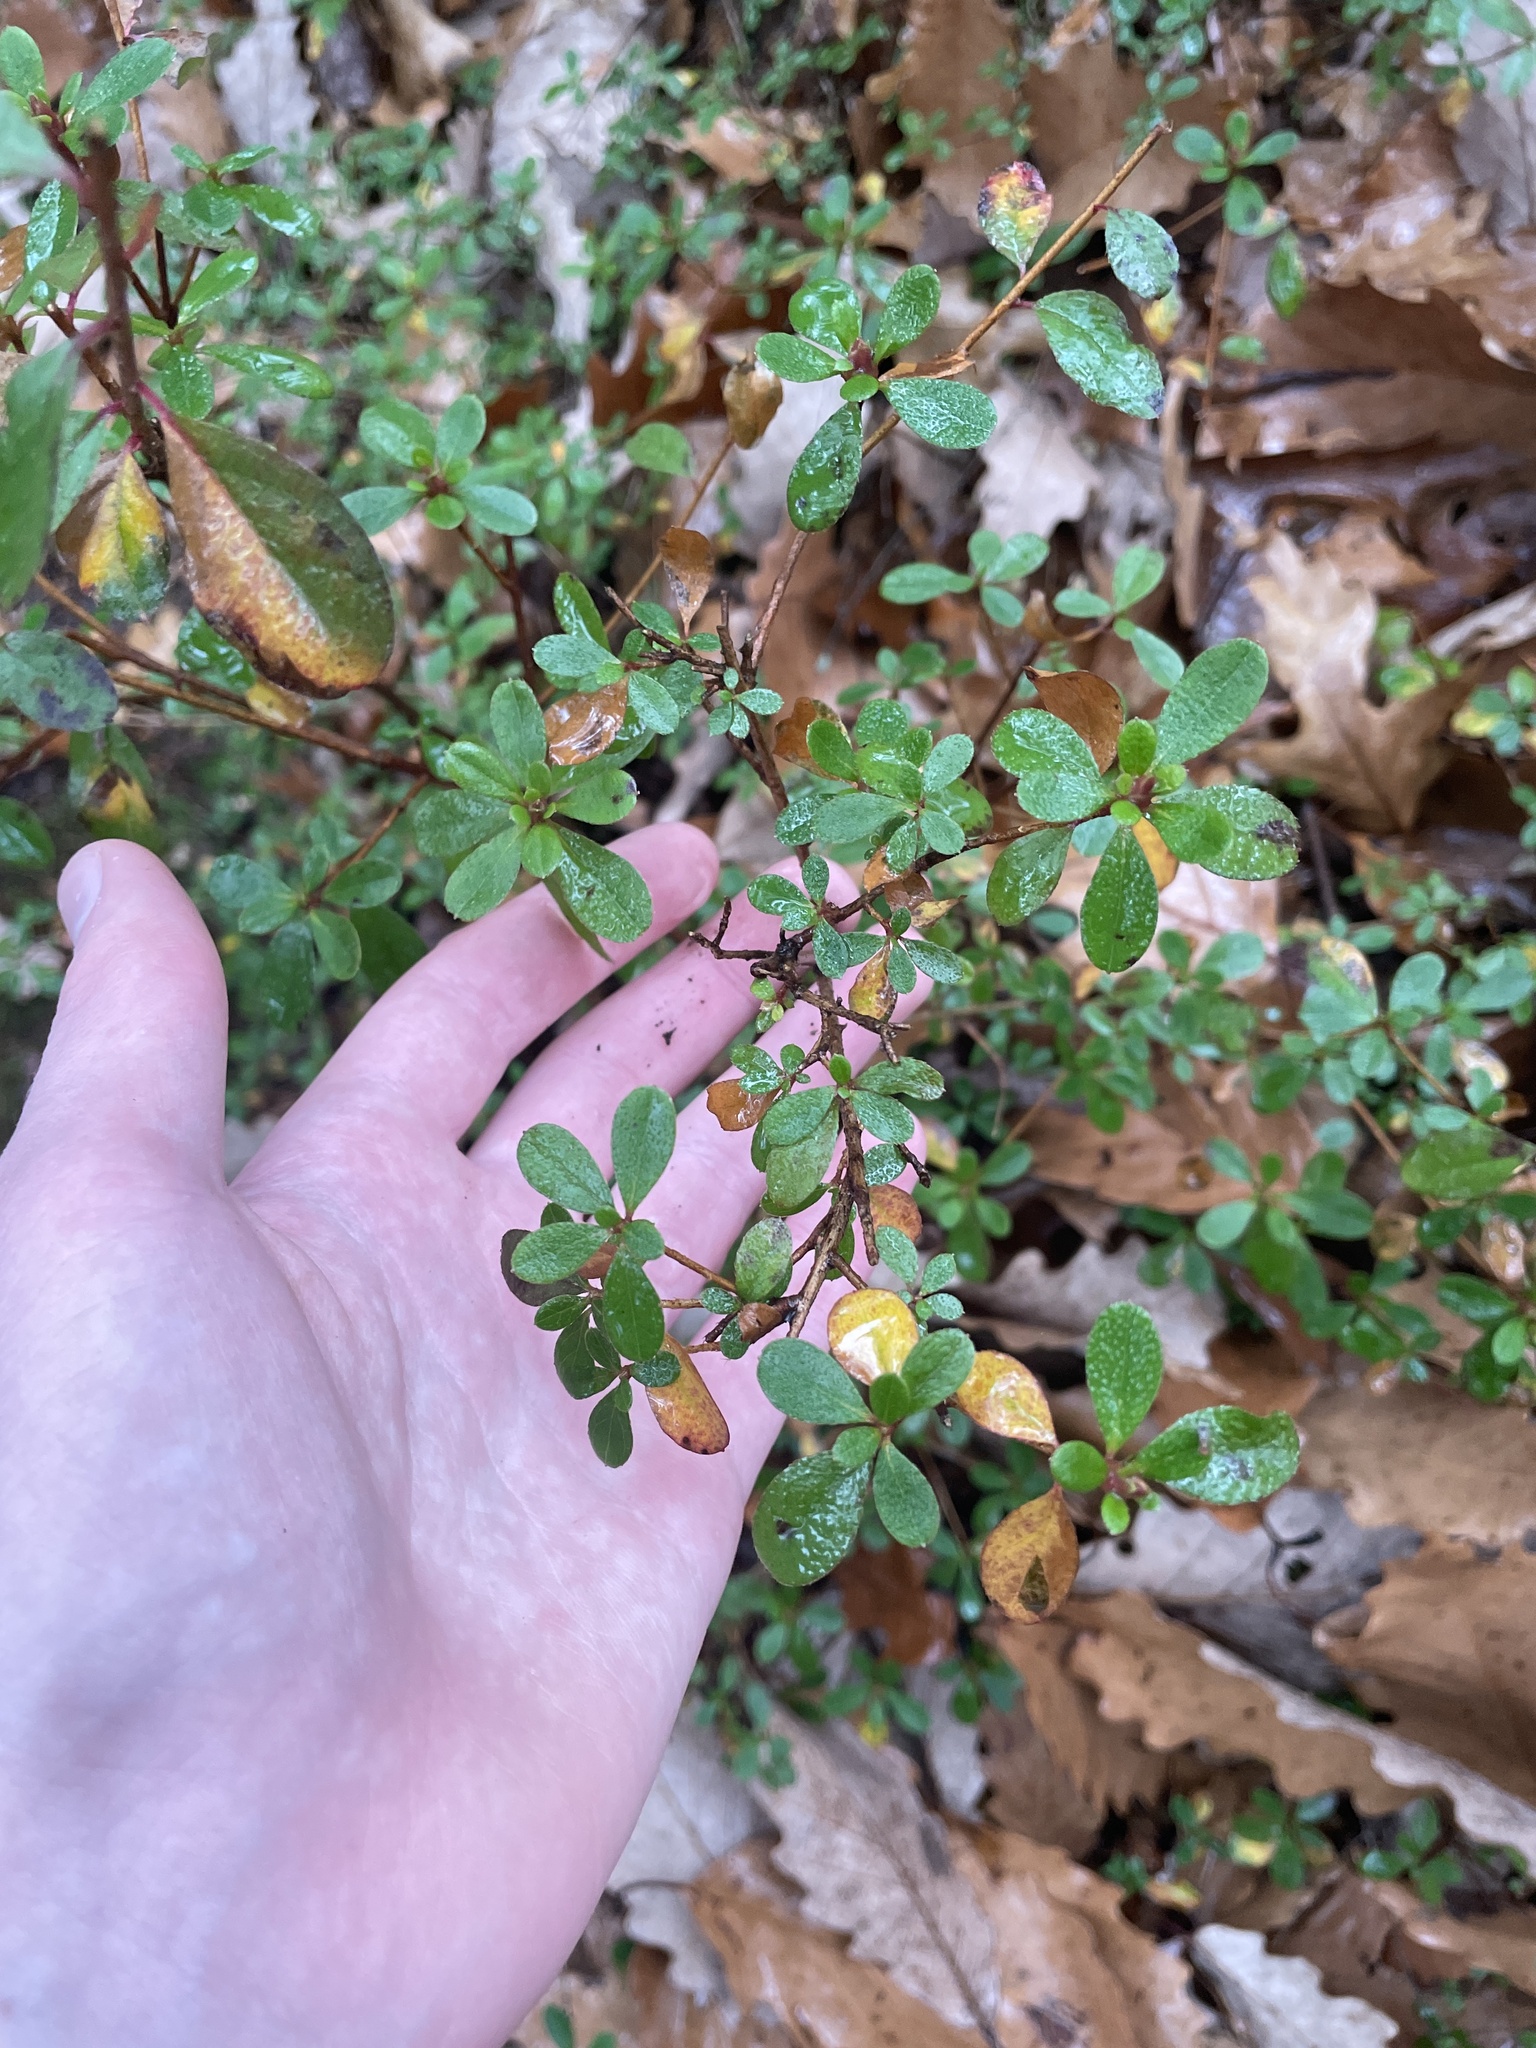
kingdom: Plantae
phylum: Tracheophyta
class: Magnoliopsida
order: Ericales
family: Ericaceae
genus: Kalmia
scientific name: Kalmia
